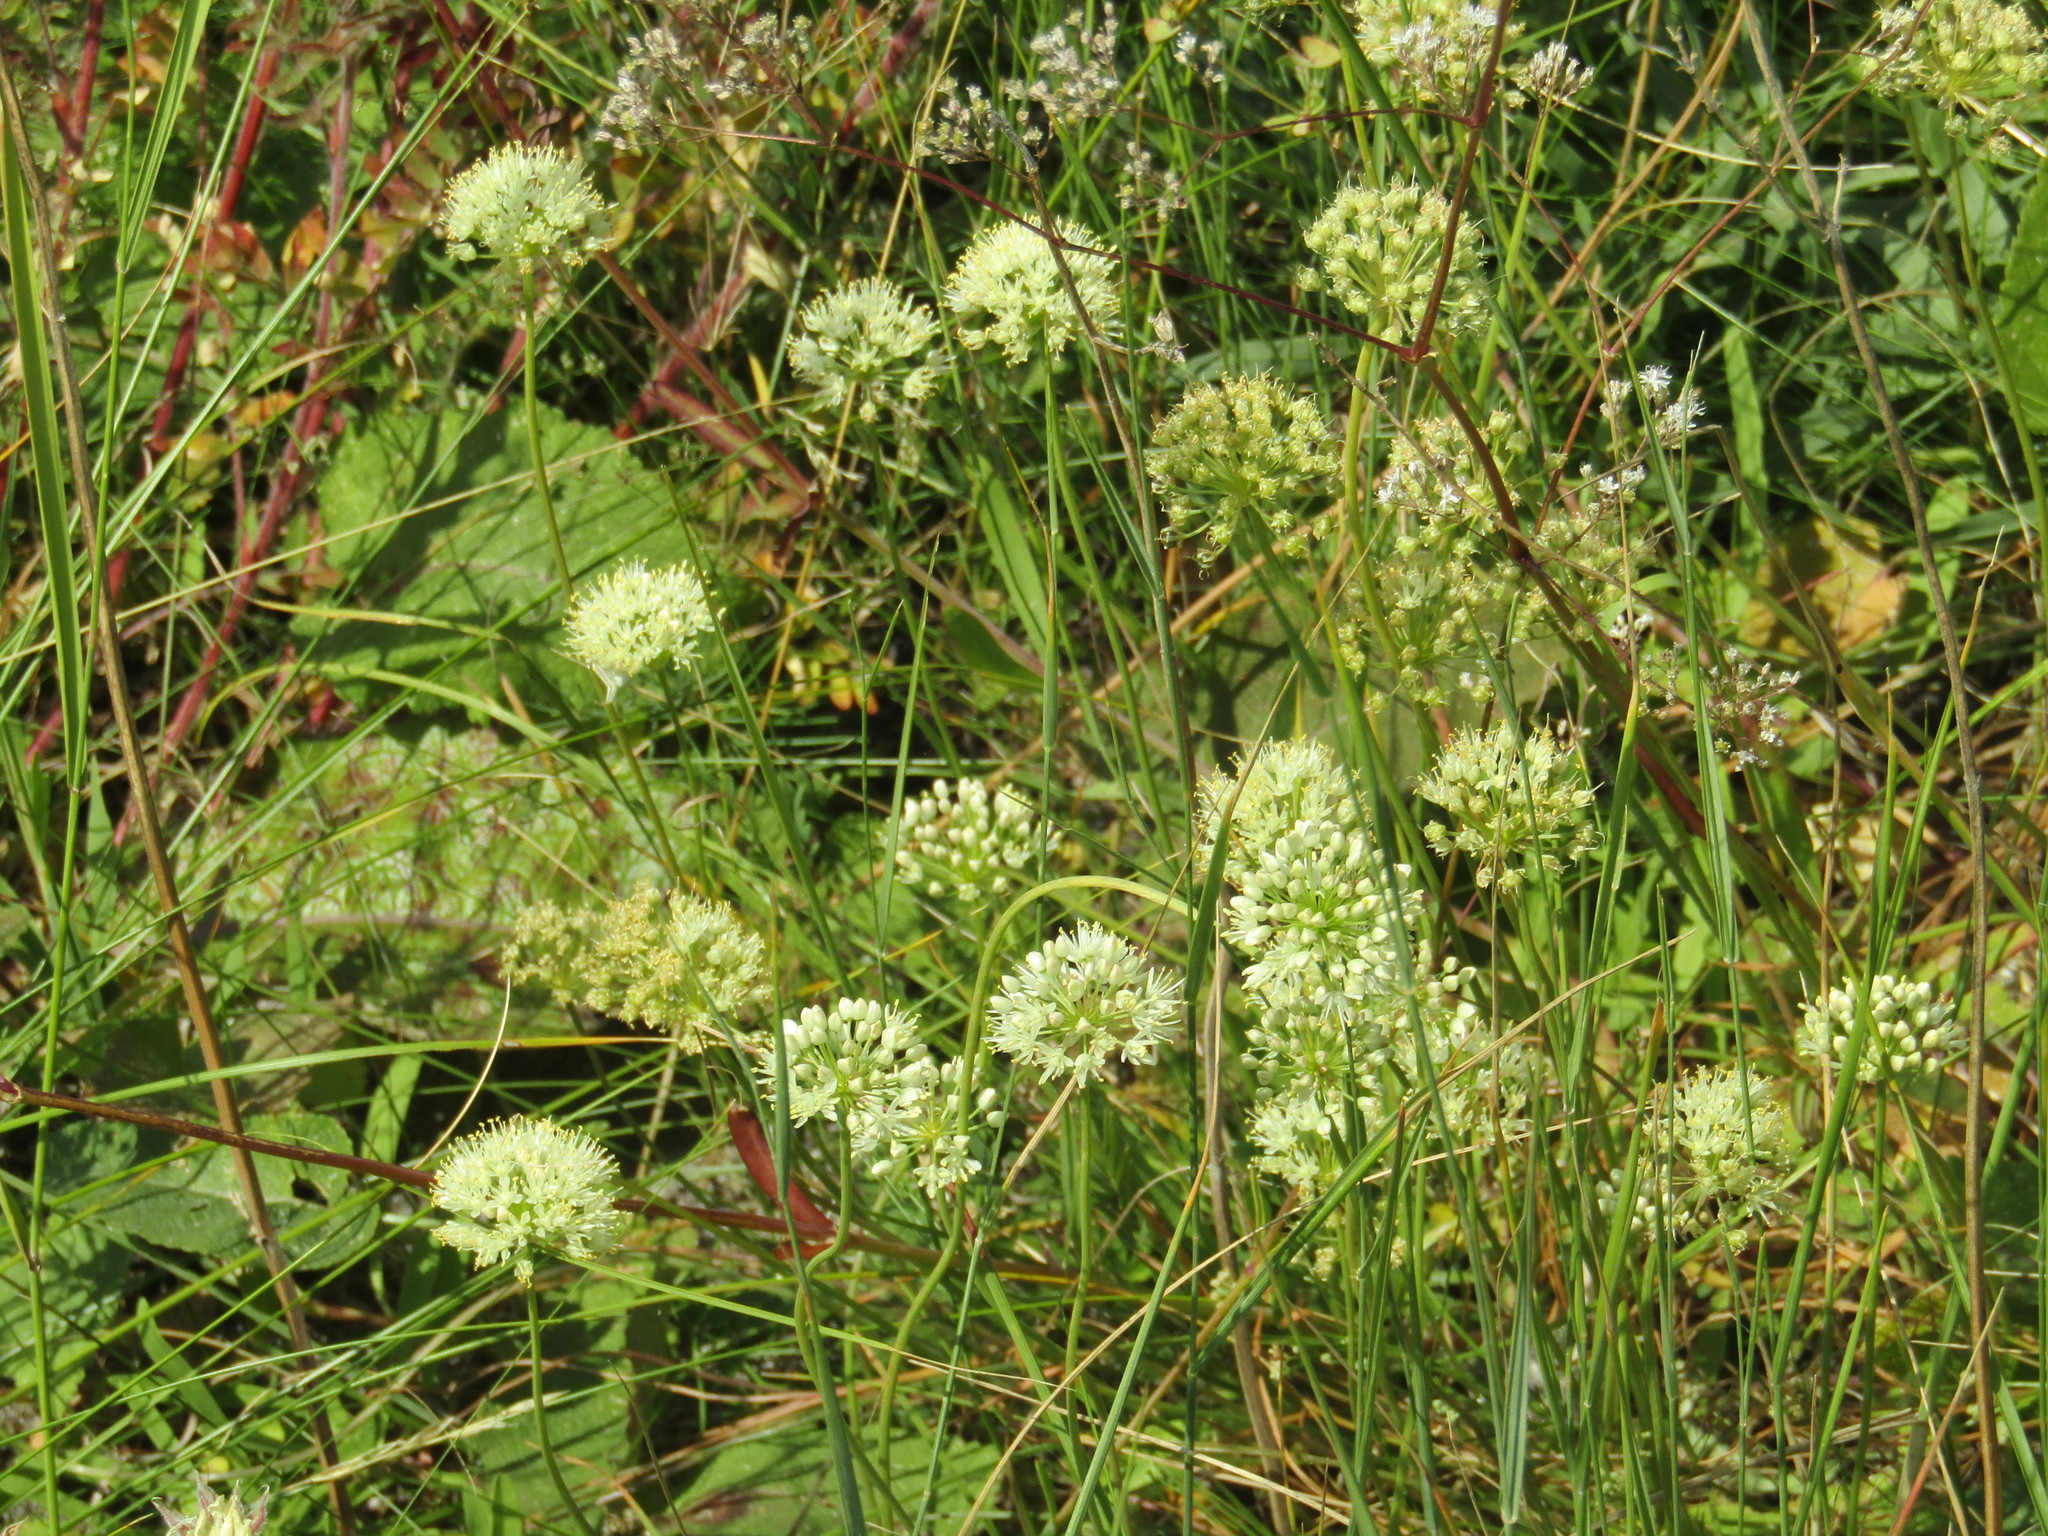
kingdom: Plantae
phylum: Tracheophyta
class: Liliopsida
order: Asparagales
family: Amaryllidaceae
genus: Allium
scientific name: Allium flavescens
